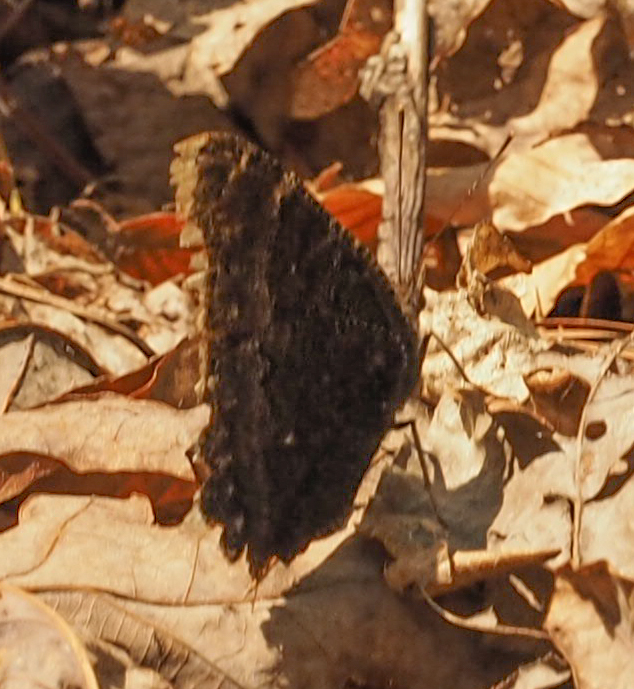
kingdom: Animalia
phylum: Arthropoda
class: Insecta
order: Lepidoptera
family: Nymphalidae
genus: Nymphalis
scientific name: Nymphalis antiopa
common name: Camberwell beauty
